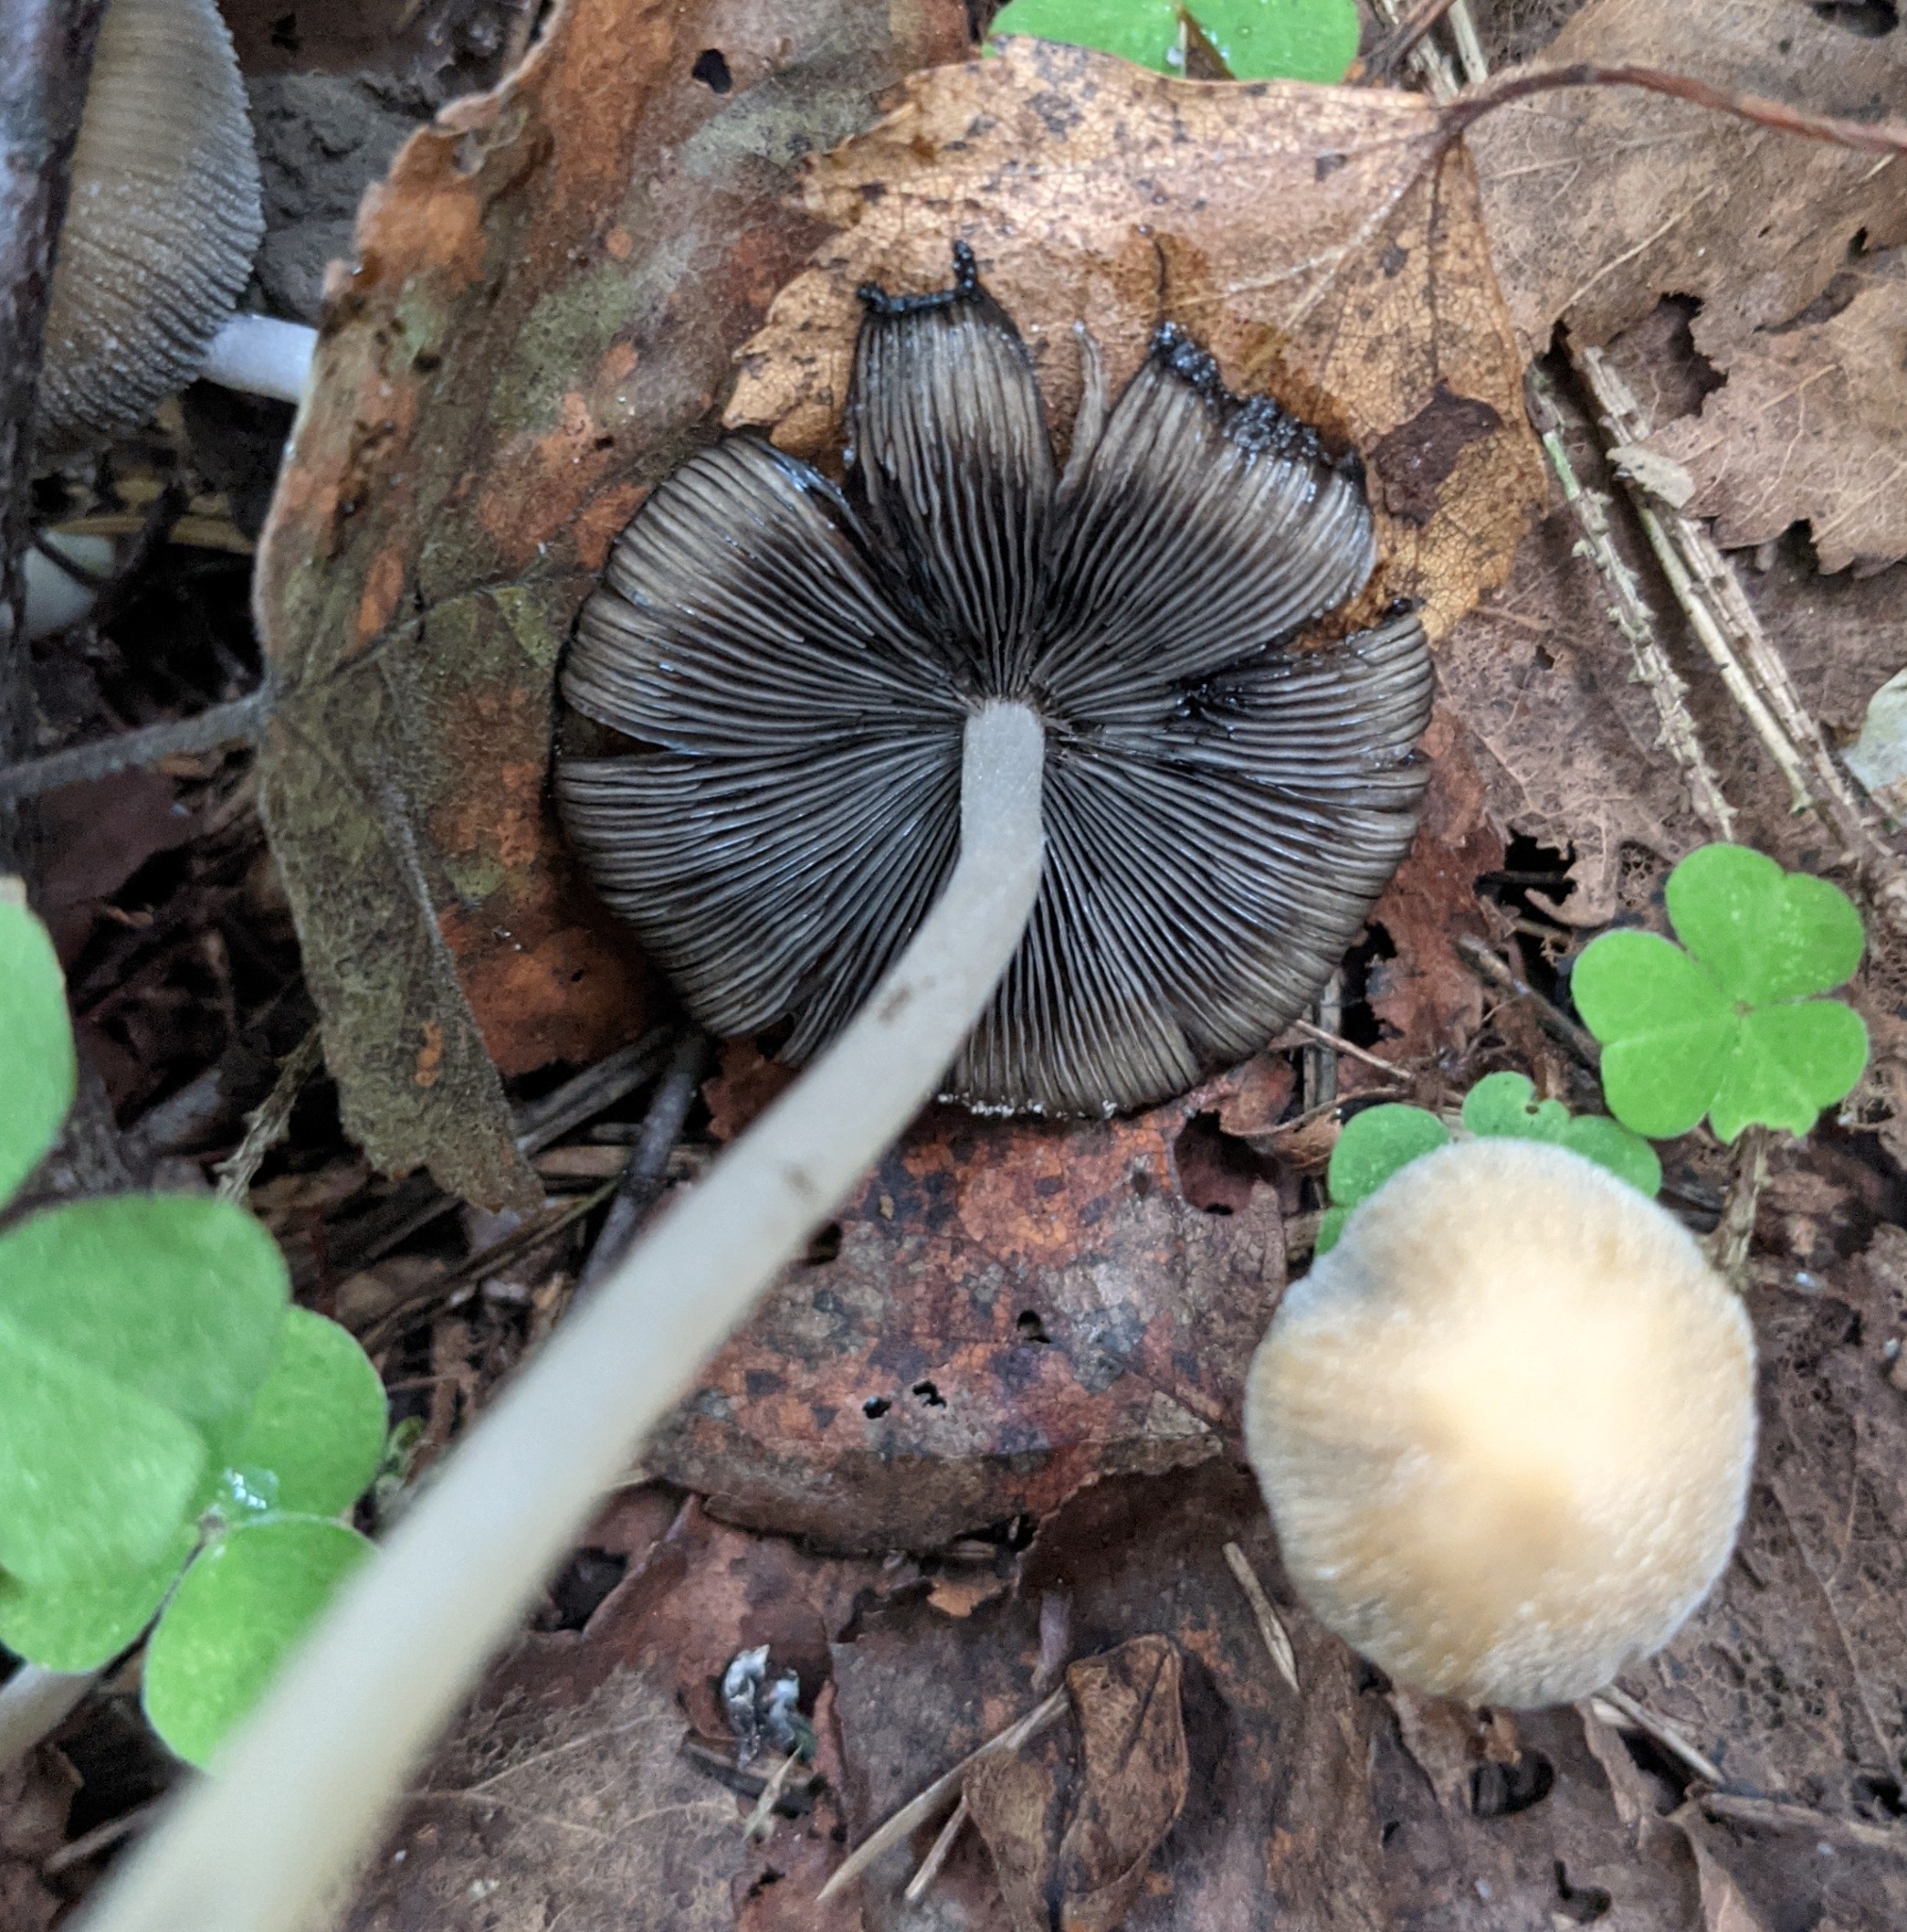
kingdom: Fungi
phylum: Basidiomycota
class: Agaricomycetes
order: Agaricales
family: Psathyrellaceae
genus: Coprinellus
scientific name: Coprinellus micaceus
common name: Glistening ink-cap
